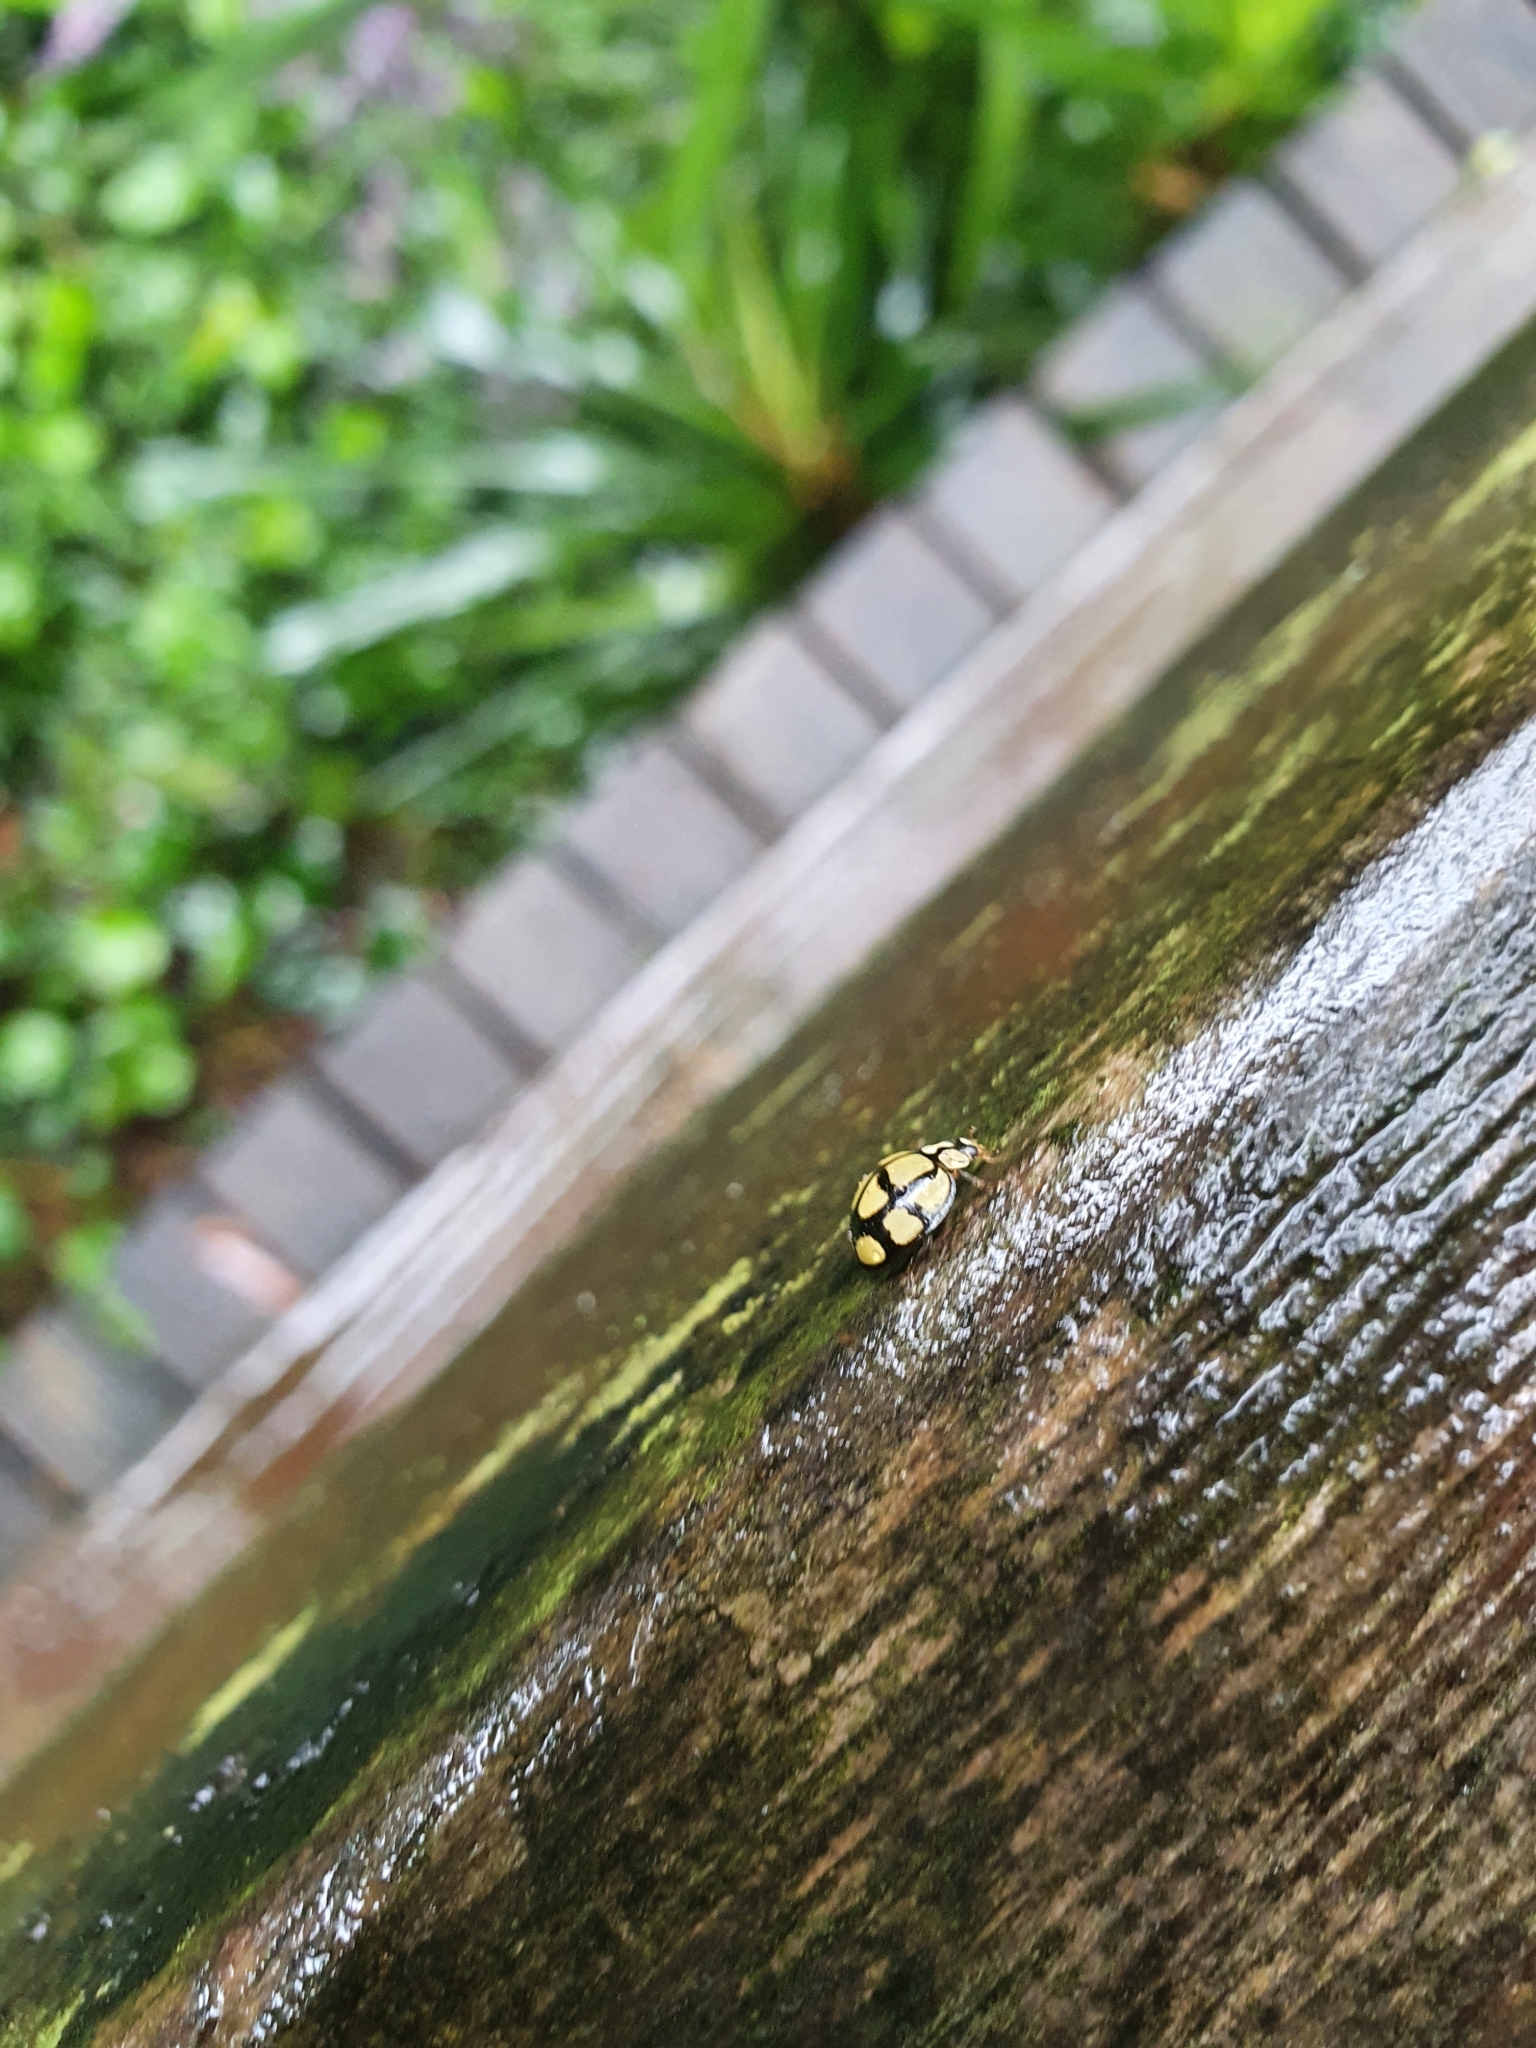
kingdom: Animalia
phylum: Arthropoda
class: Insecta
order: Coleoptera
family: Coccinellidae
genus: Harmonia
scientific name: Harmonia
